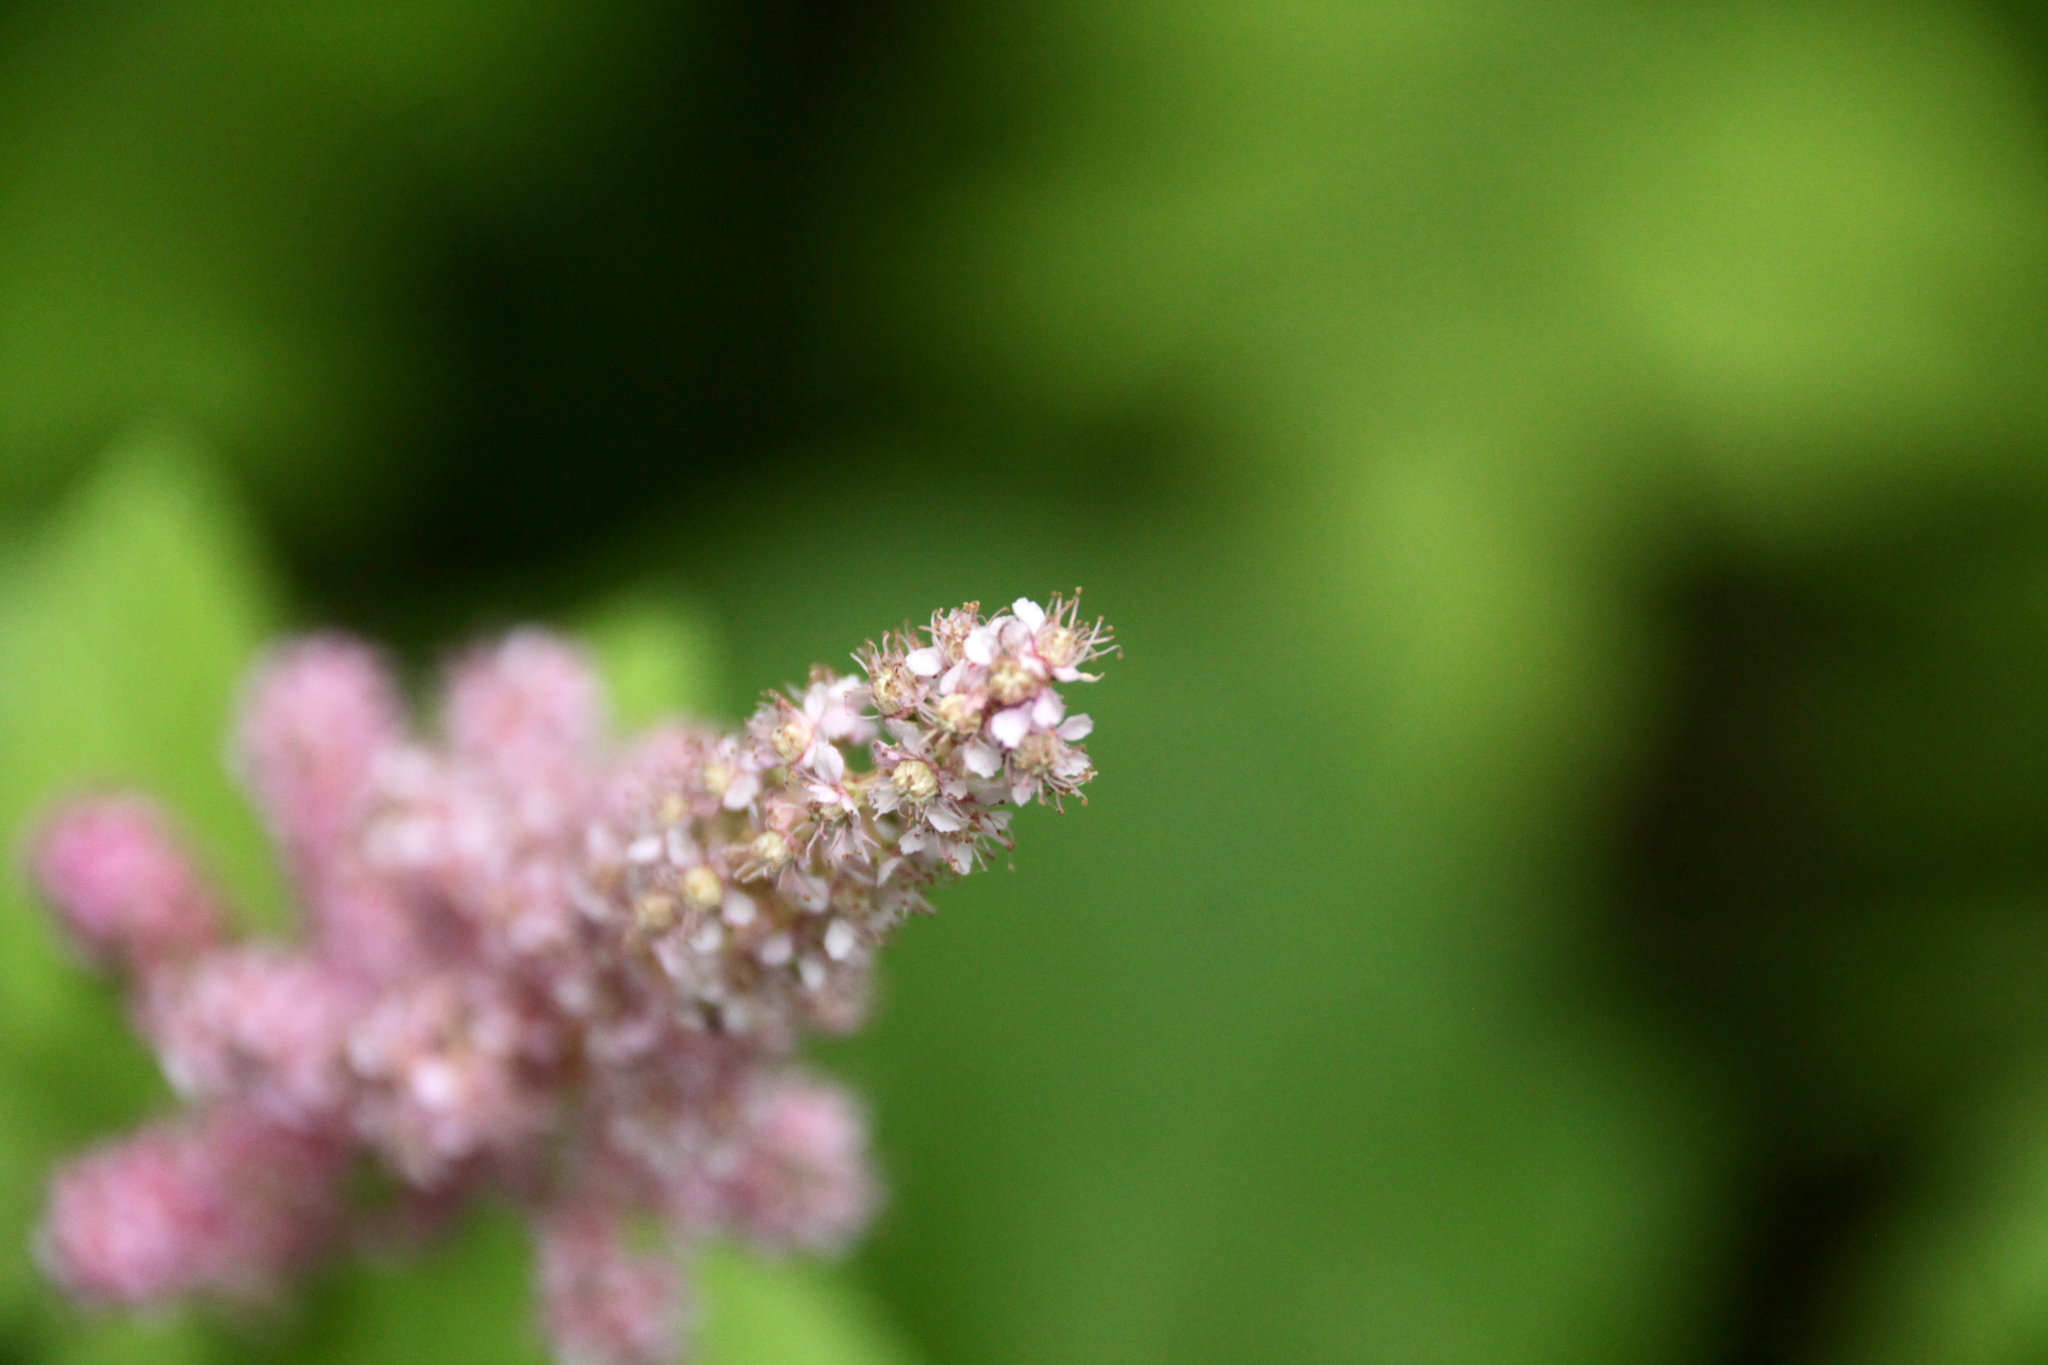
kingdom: Plantae
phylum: Tracheophyta
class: Magnoliopsida
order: Rosales
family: Rosaceae
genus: Spiraea
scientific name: Spiraea tomentosa
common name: Hardhack
